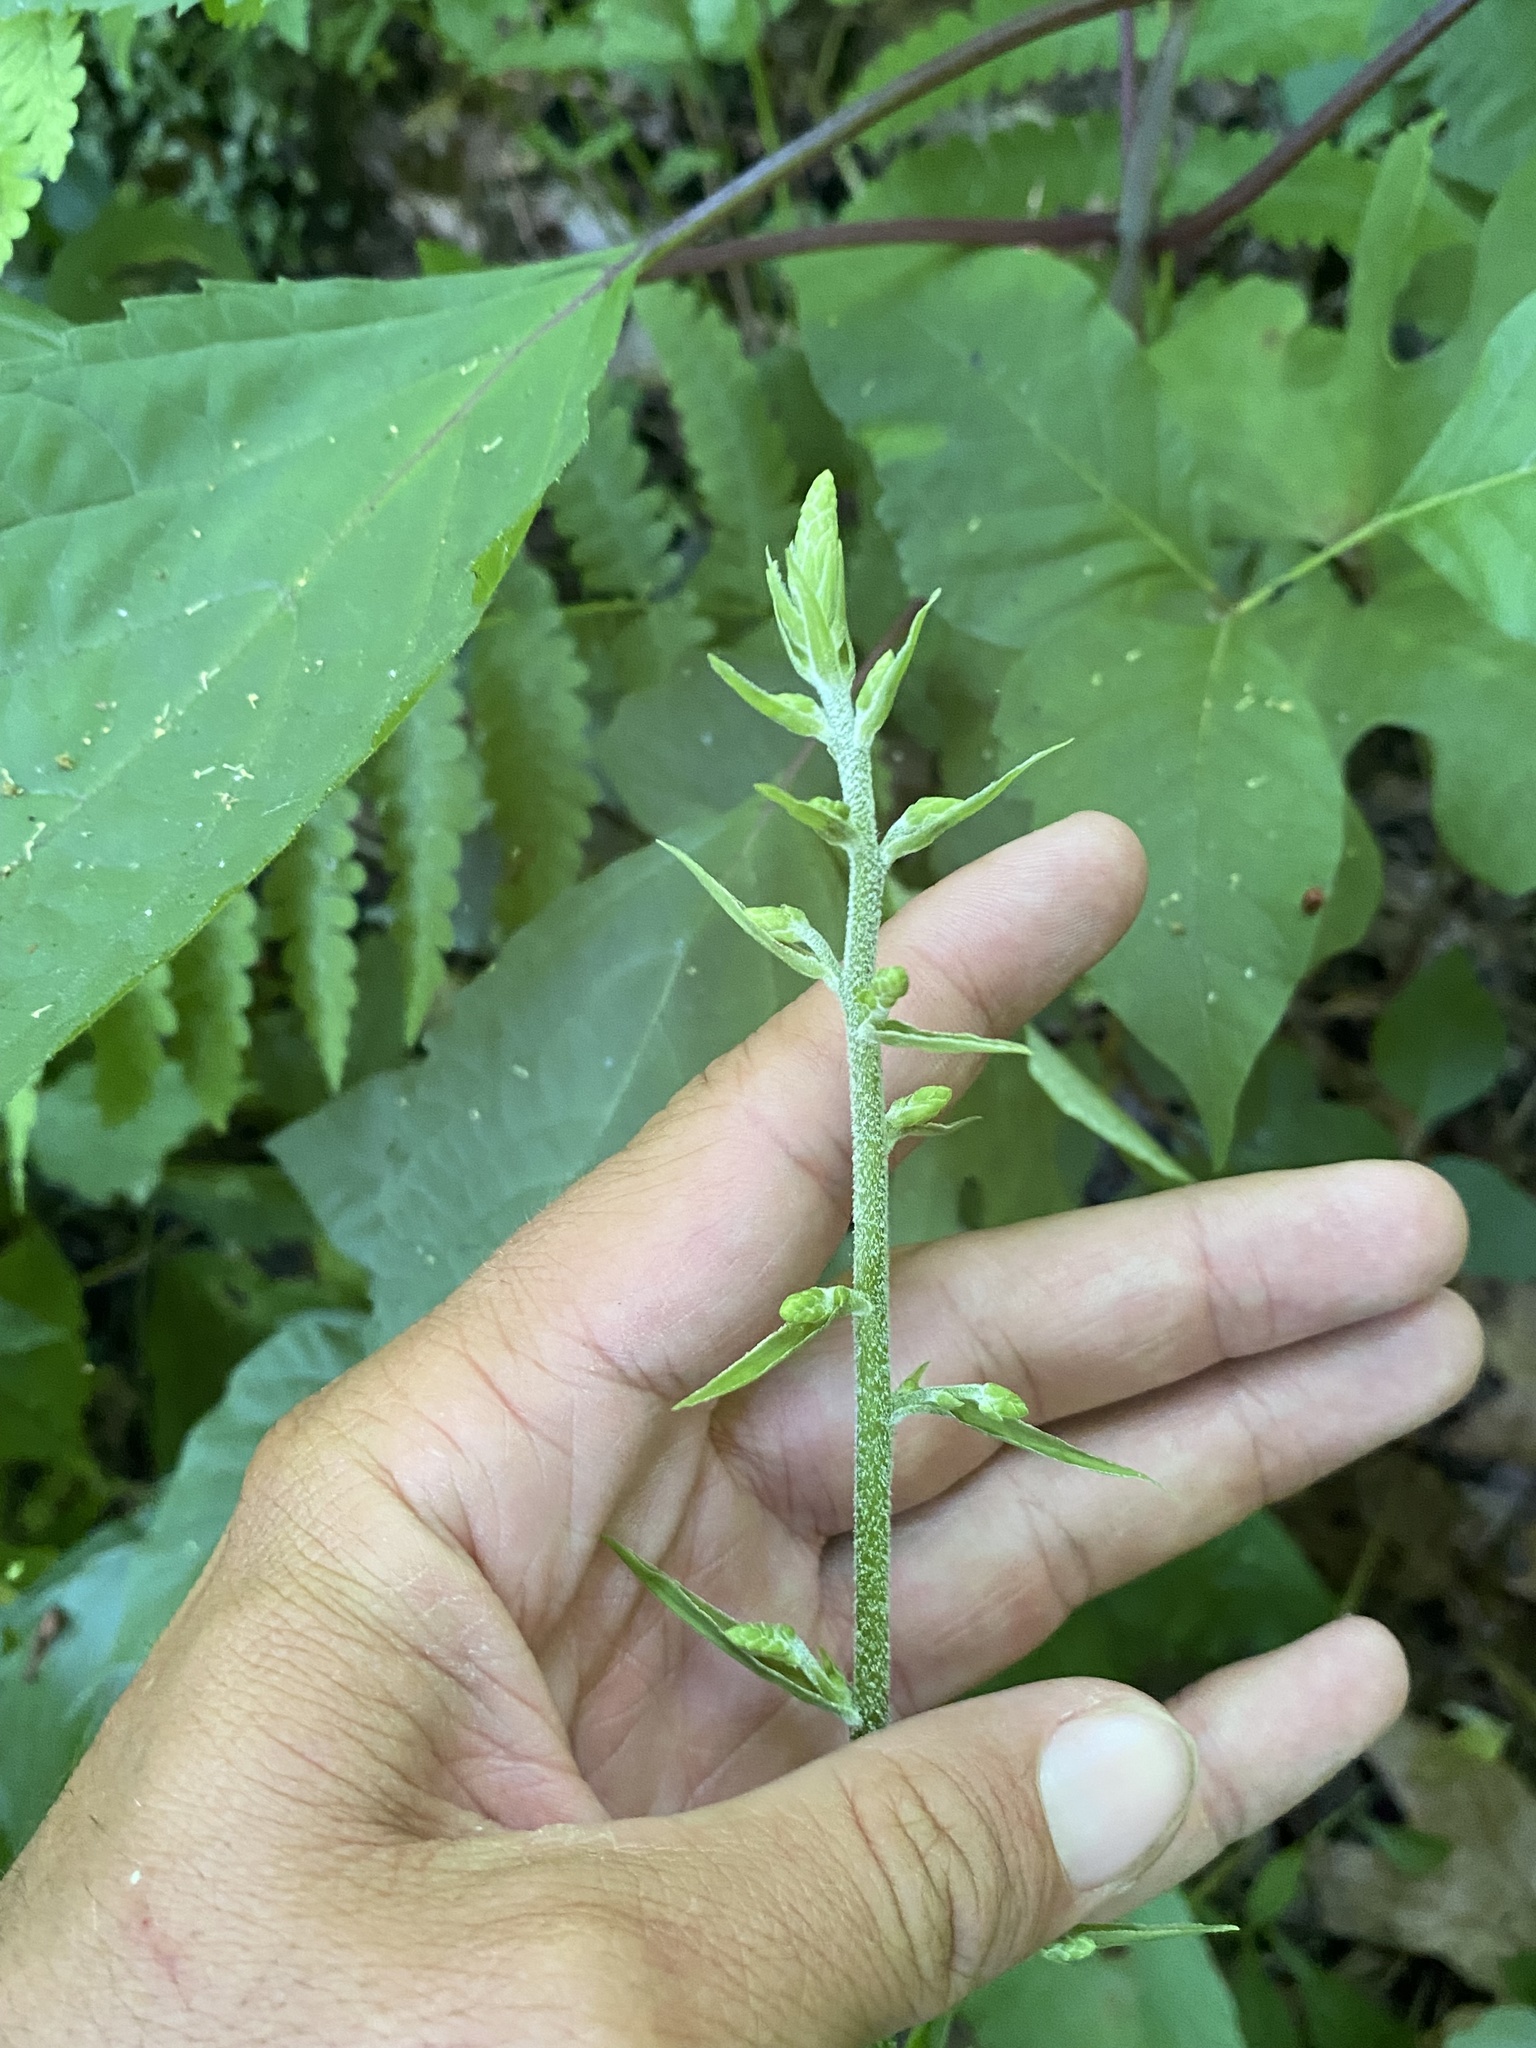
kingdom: Plantae
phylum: Tracheophyta
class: Liliopsida
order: Liliales
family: Melanthiaceae
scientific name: Melanthiaceae
